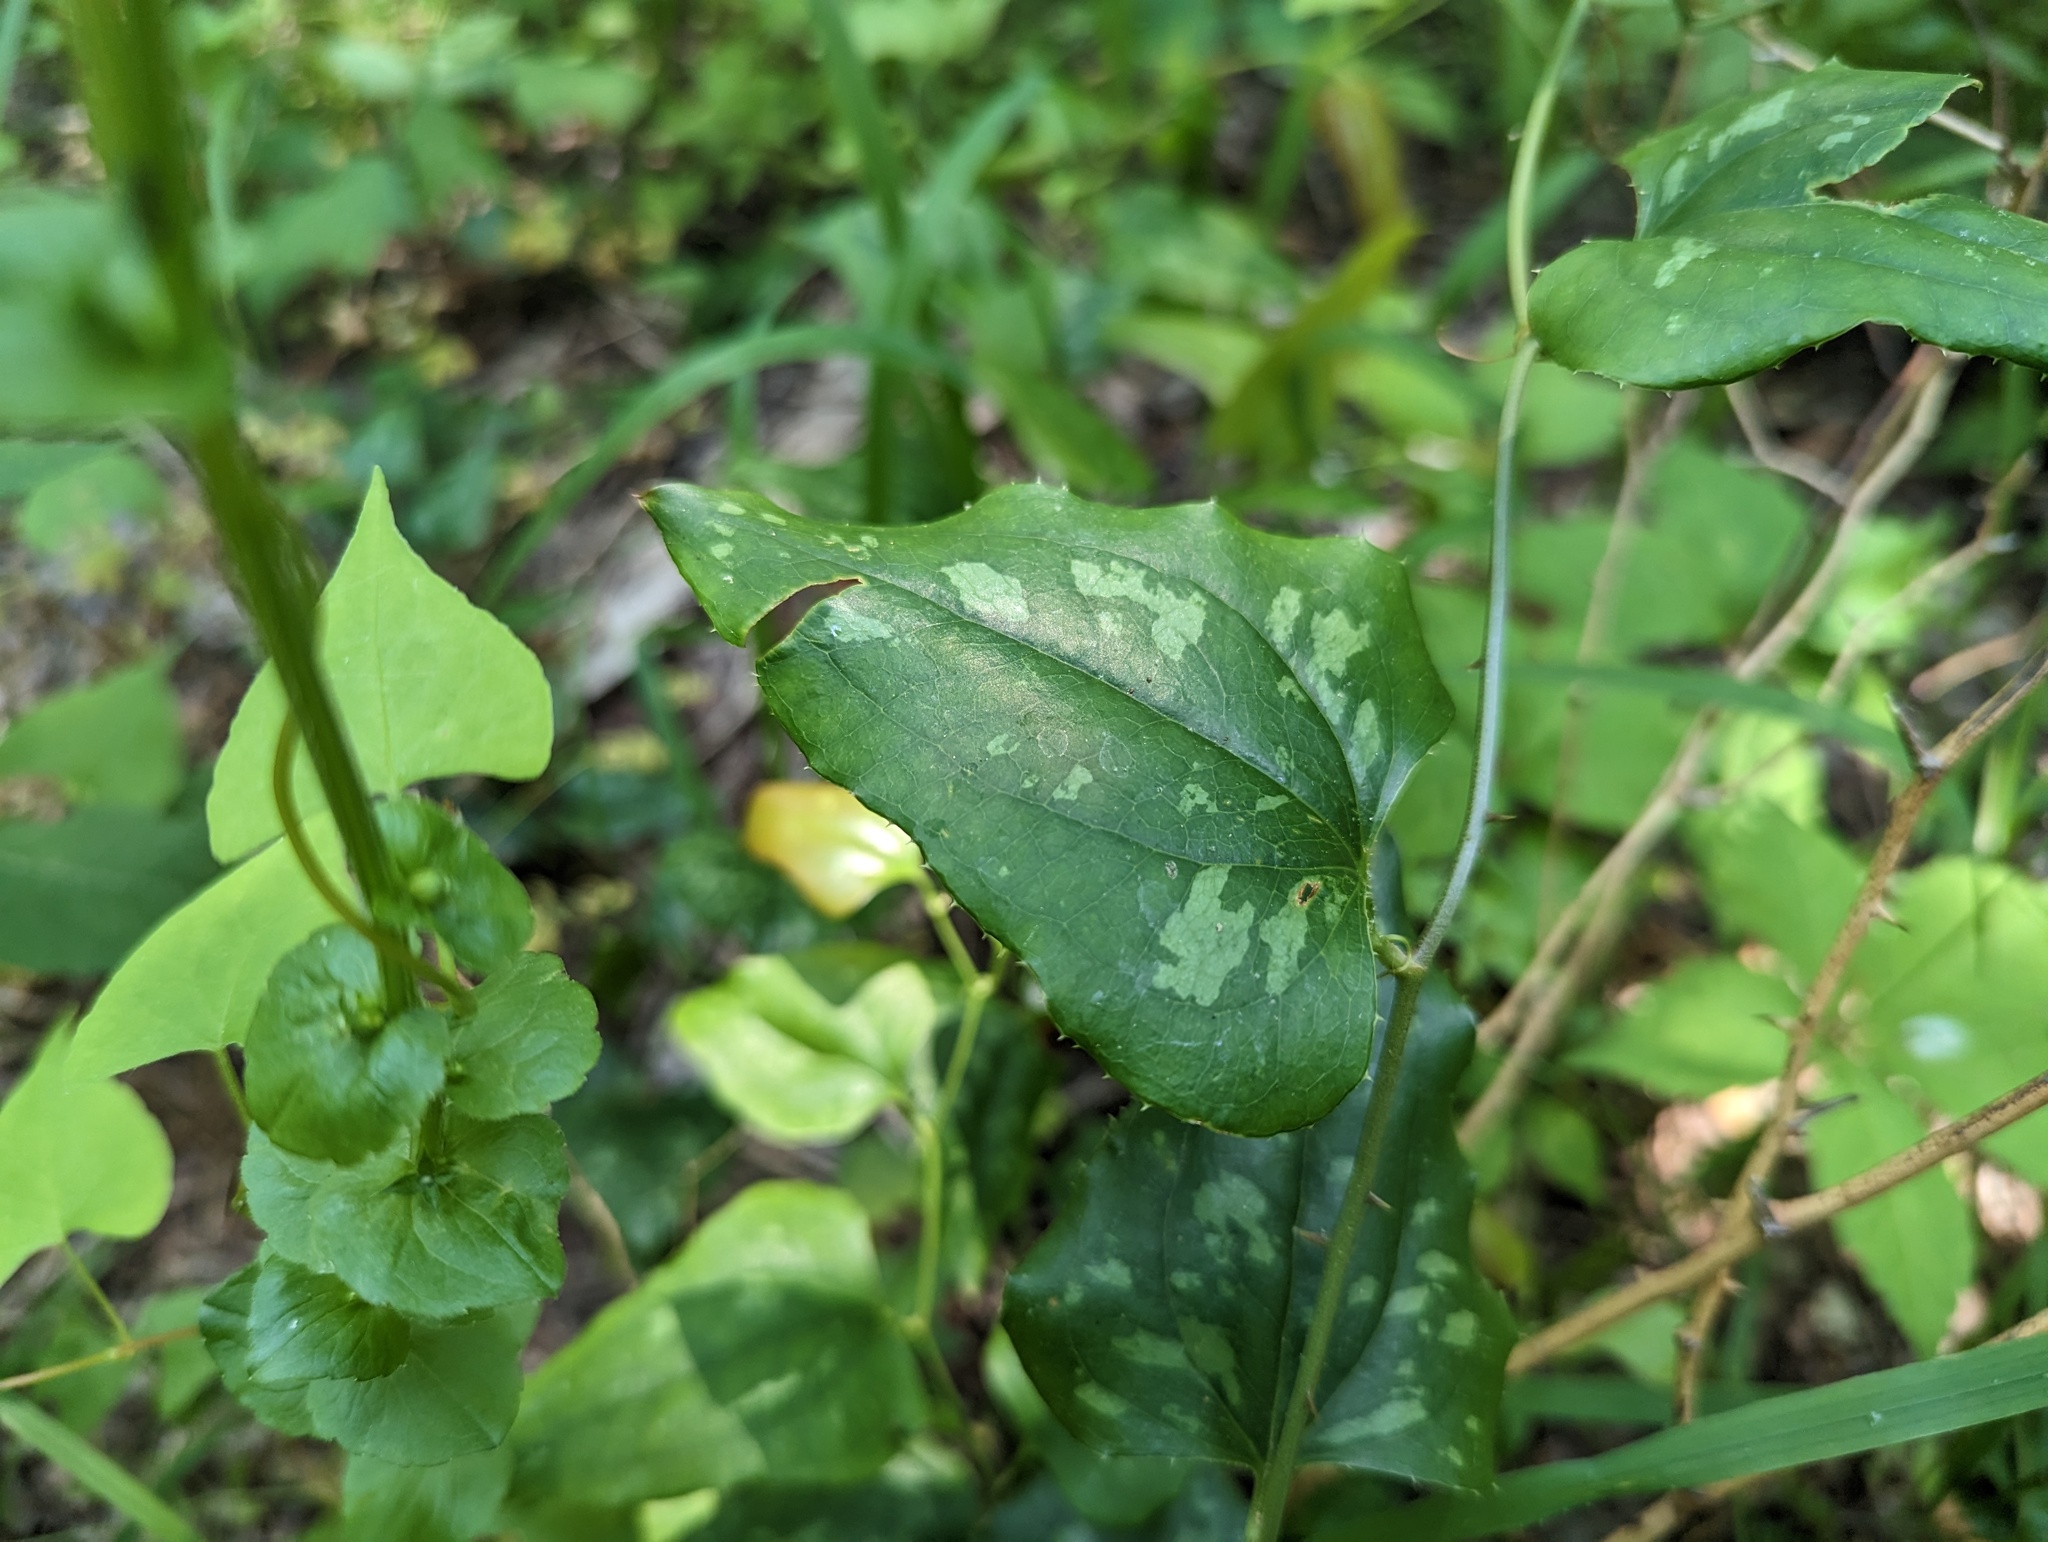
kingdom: Plantae
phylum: Tracheophyta
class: Liliopsida
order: Liliales
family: Smilacaceae
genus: Smilax
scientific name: Smilax bona-nox
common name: Catbrier
